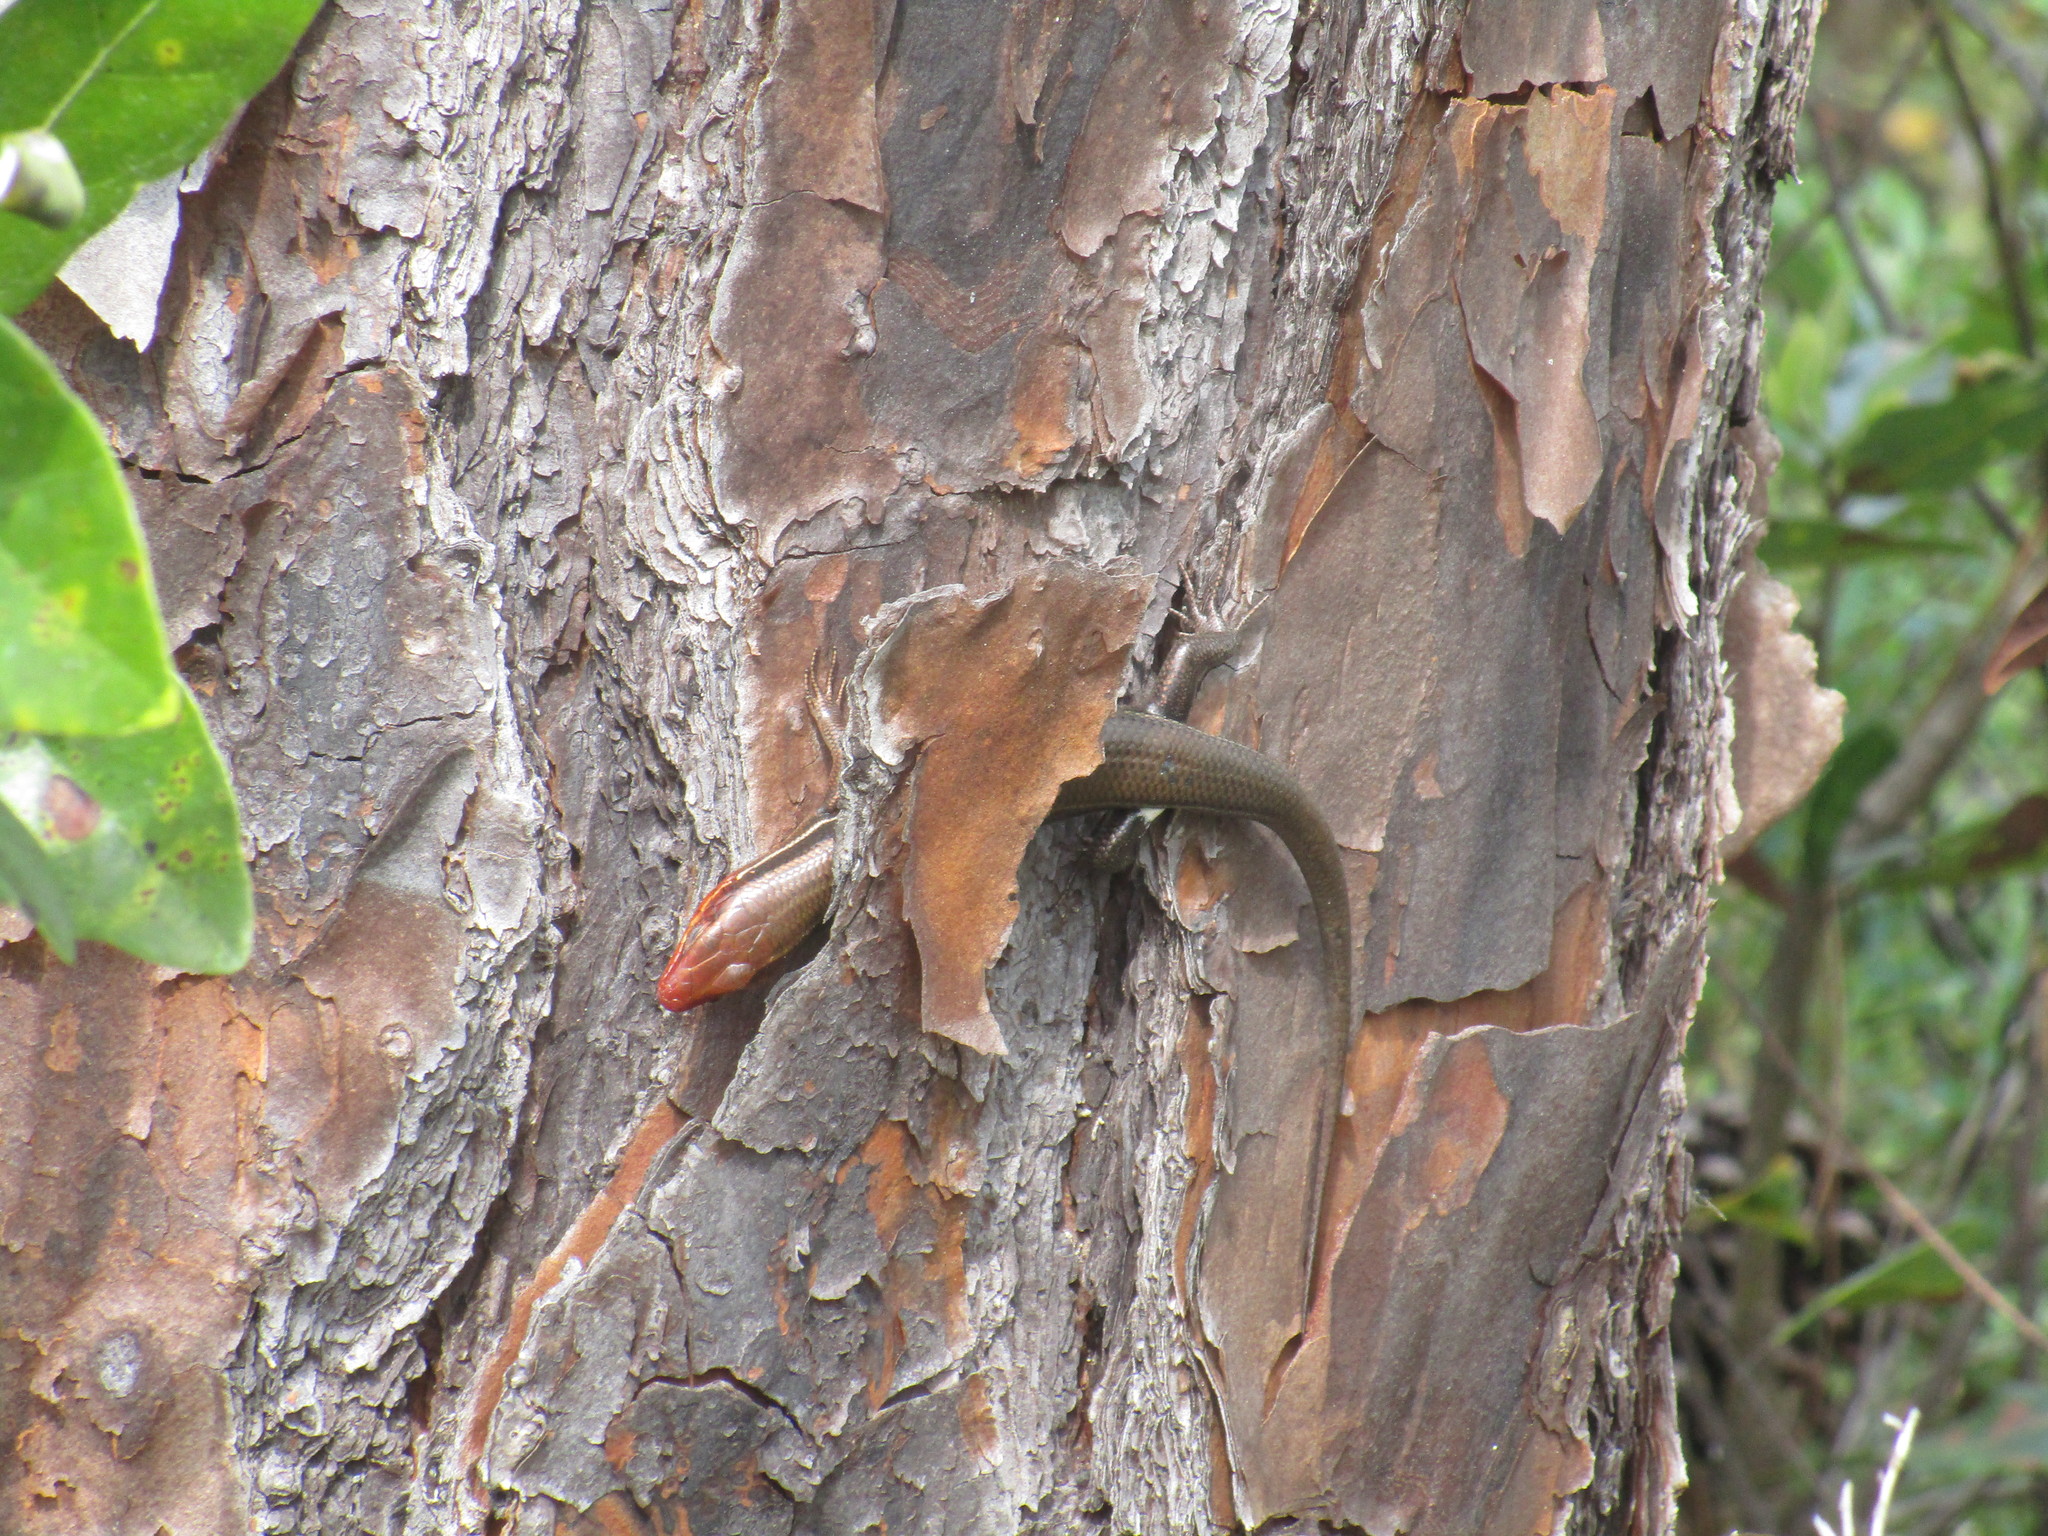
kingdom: Animalia
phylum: Chordata
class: Squamata
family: Scincidae
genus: Plestiodon
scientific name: Plestiodon inexpectatus
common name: Southeastern five-lined skink
